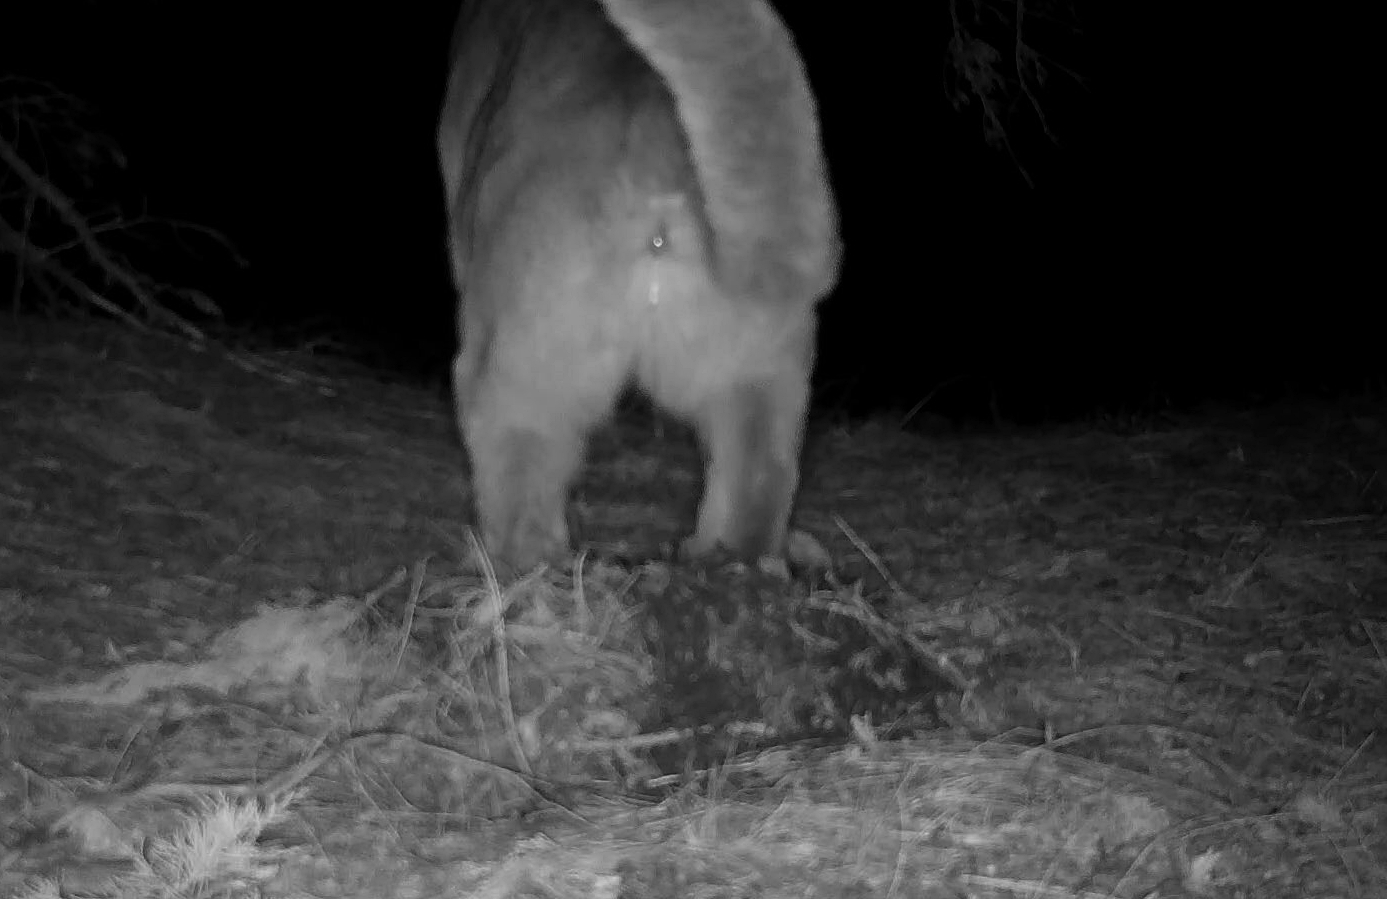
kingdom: Animalia
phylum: Chordata
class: Mammalia
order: Carnivora
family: Felidae
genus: Puma
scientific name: Puma concolor
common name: Puma
